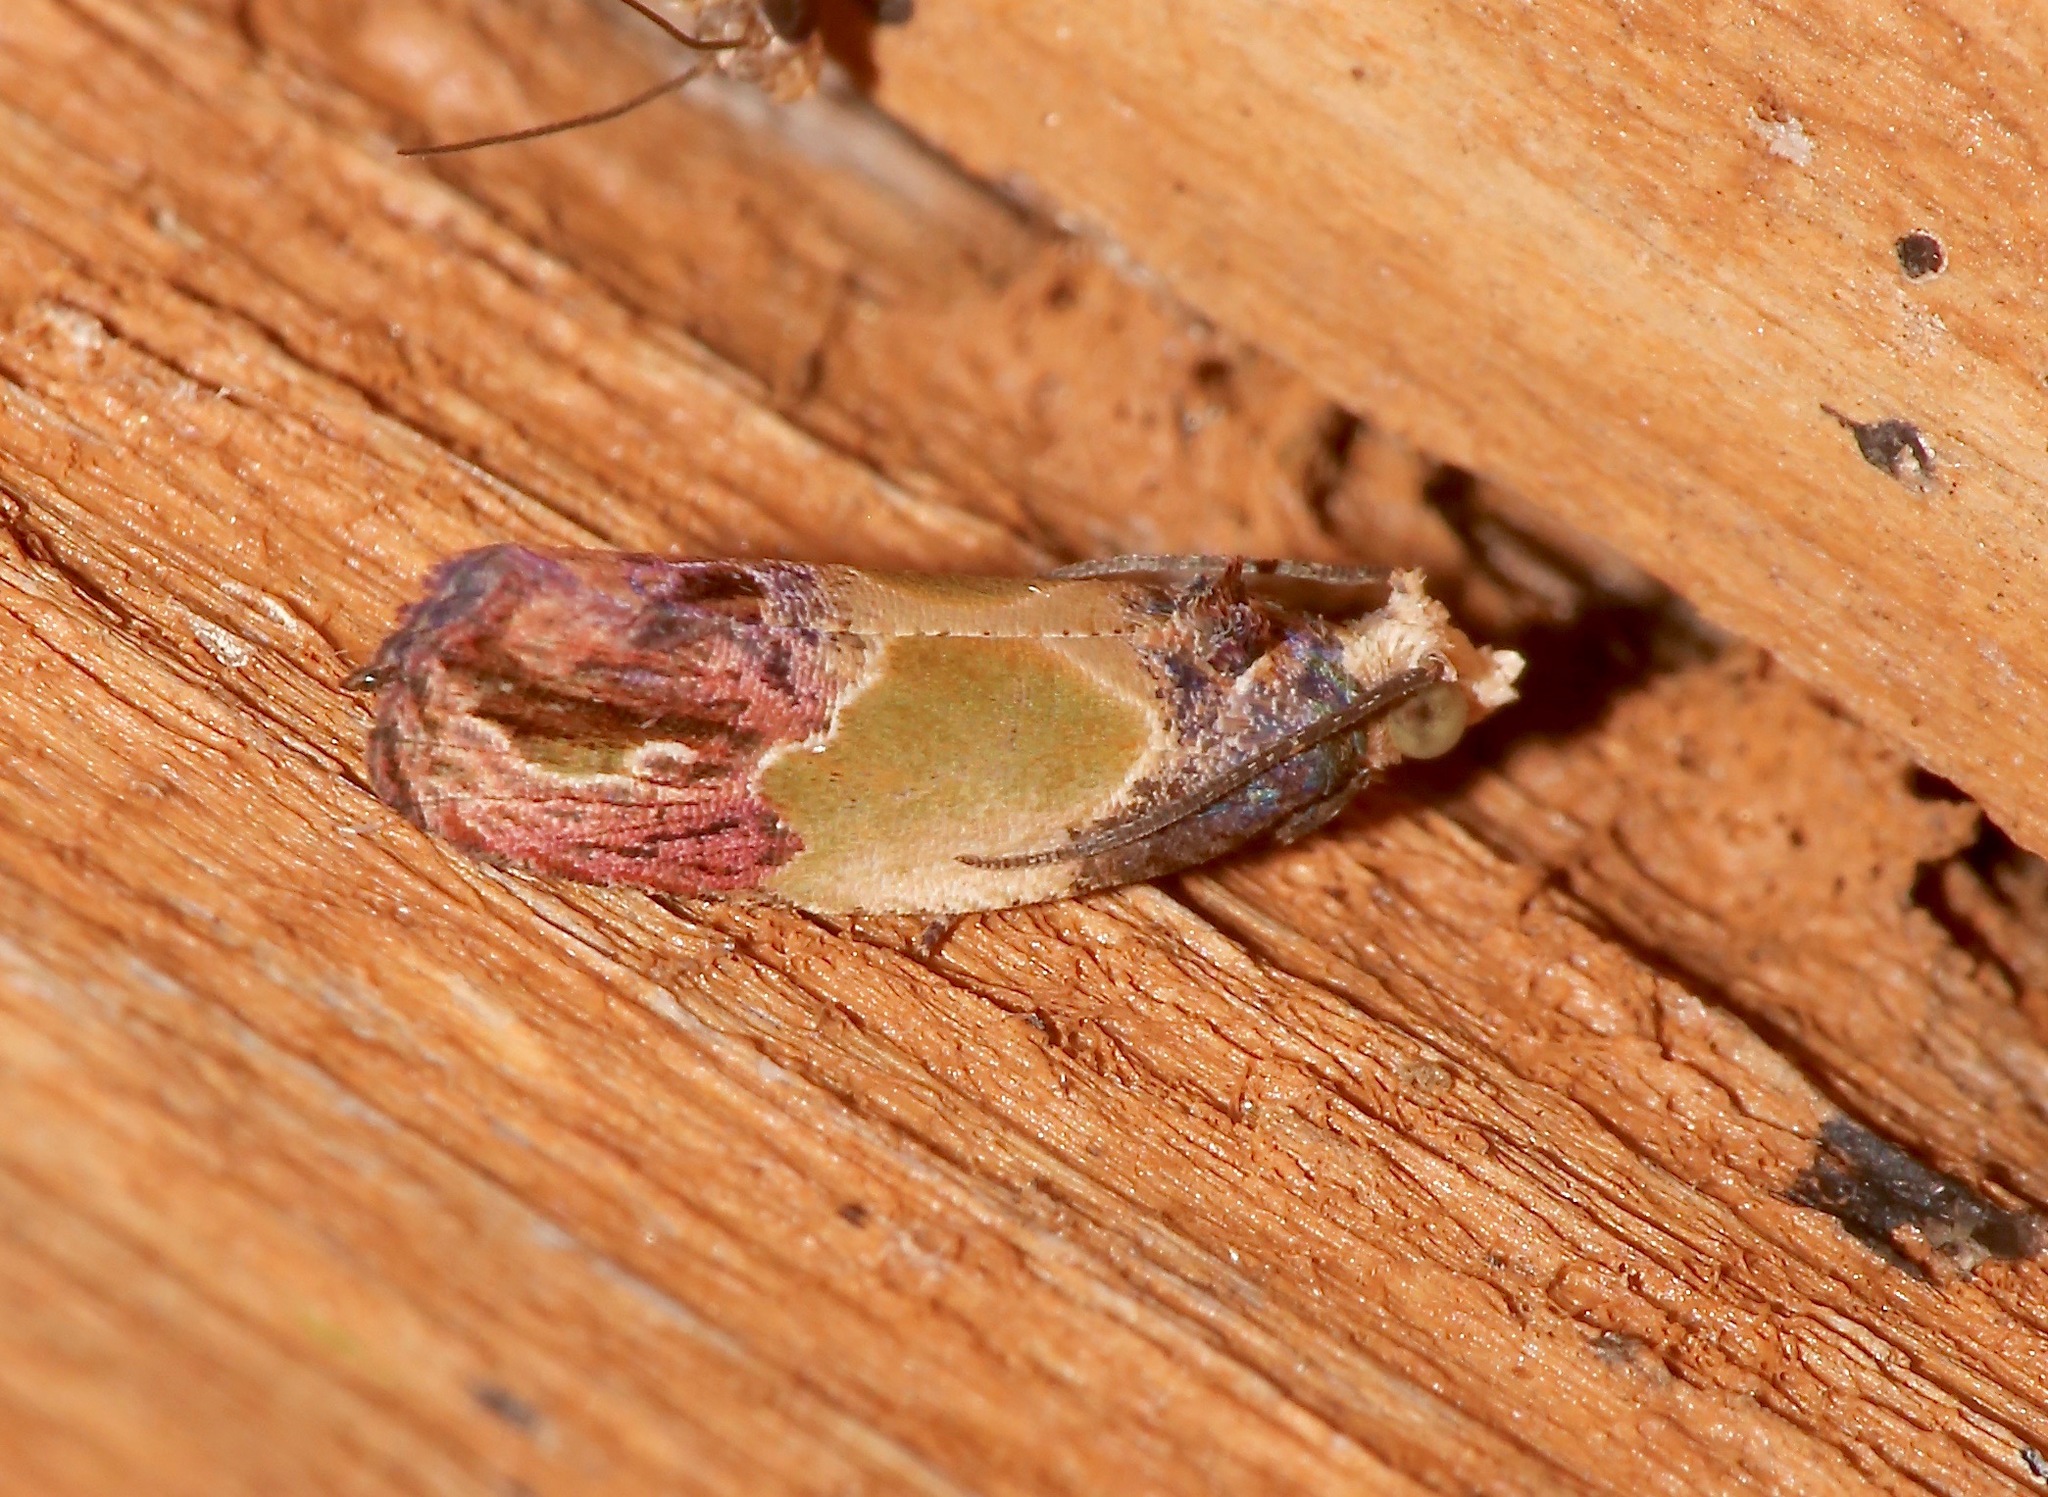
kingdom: Animalia
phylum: Arthropoda
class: Insecta
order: Lepidoptera
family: Tortricidae
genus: Eumarozia
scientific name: Eumarozia malachitana
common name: Sculptured moth
